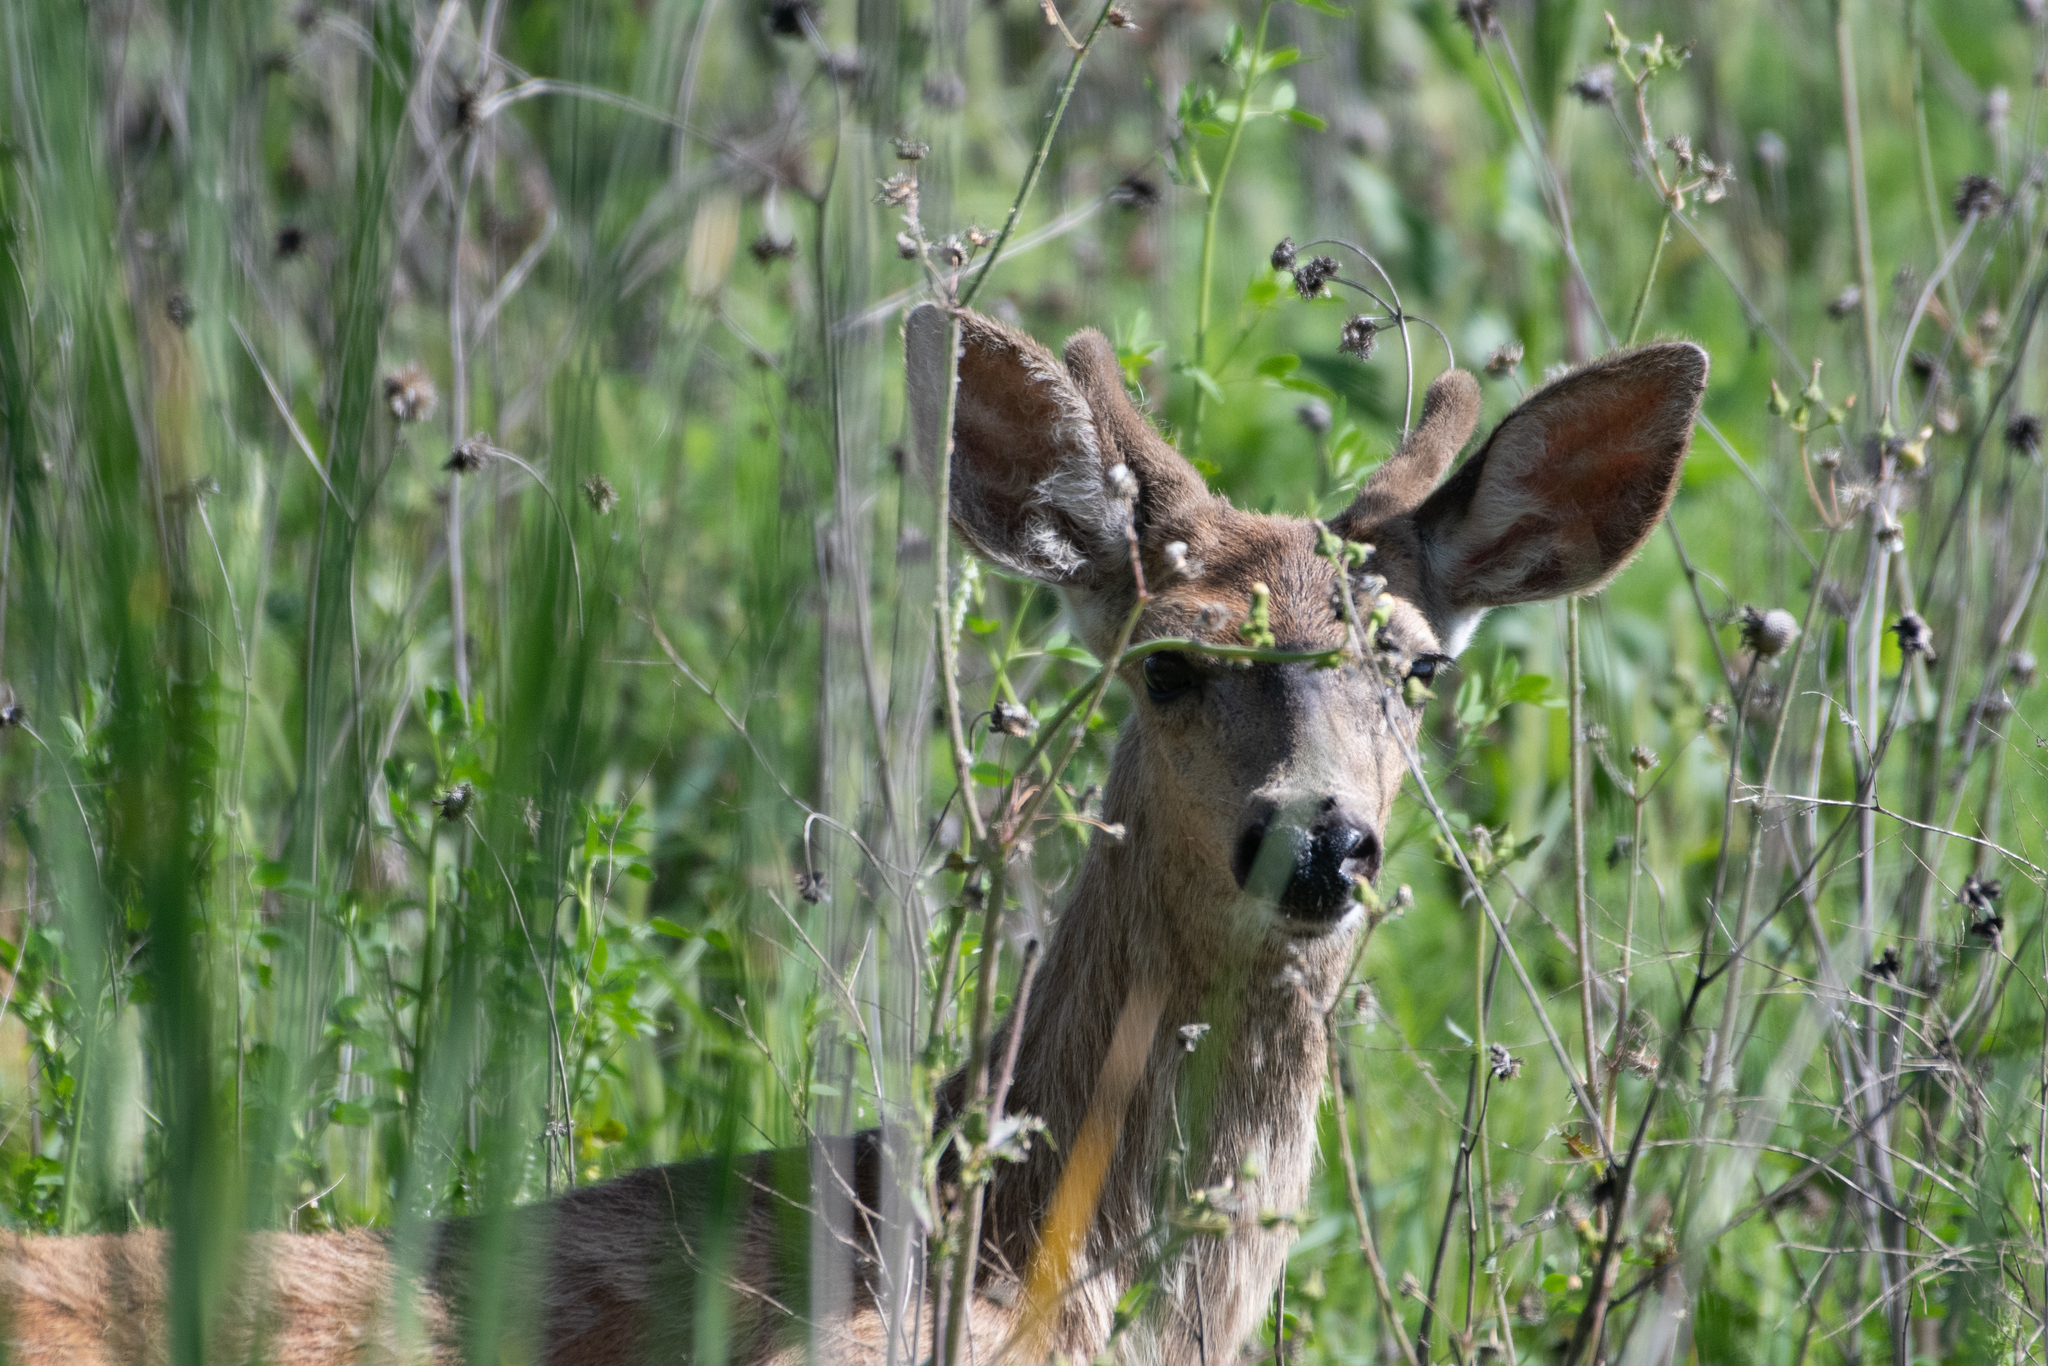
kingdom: Animalia
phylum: Chordata
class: Mammalia
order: Artiodactyla
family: Cervidae
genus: Odocoileus
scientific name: Odocoileus hemionus
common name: Mule deer
